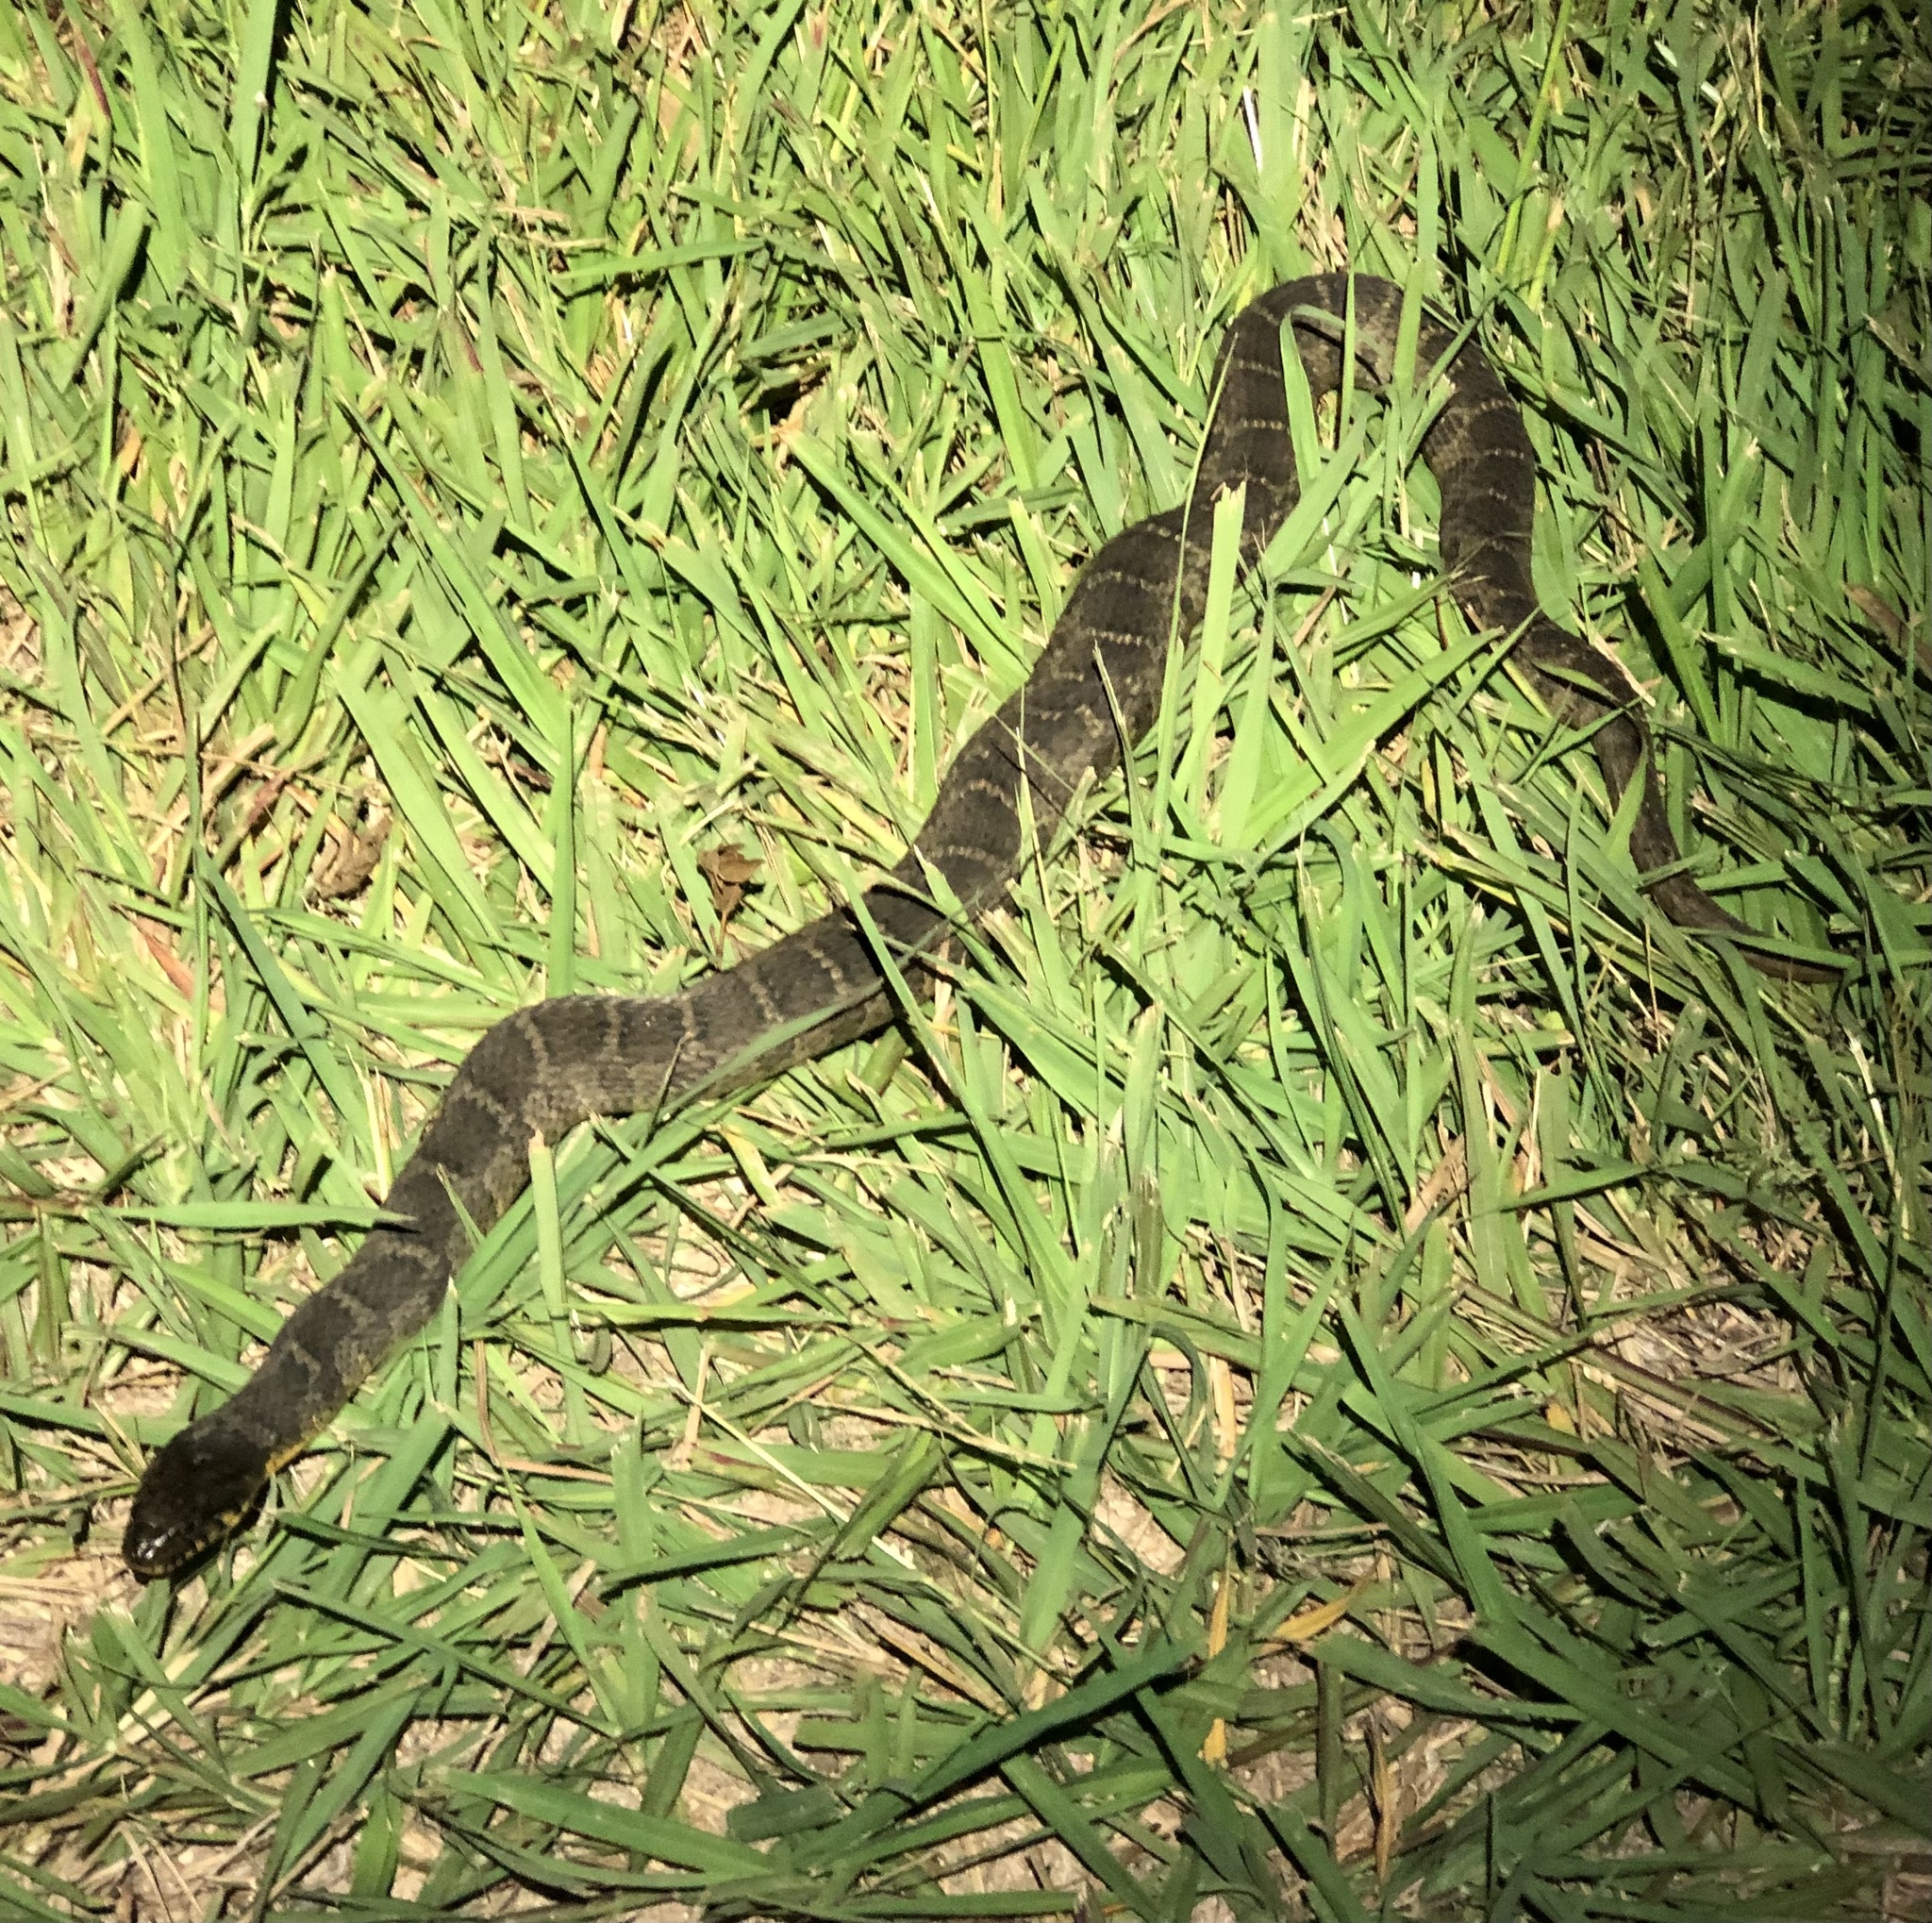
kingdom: Animalia
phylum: Chordata
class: Squamata
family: Colubridae
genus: Nerodia
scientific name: Nerodia erythrogaster
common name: Plainbelly water snake
